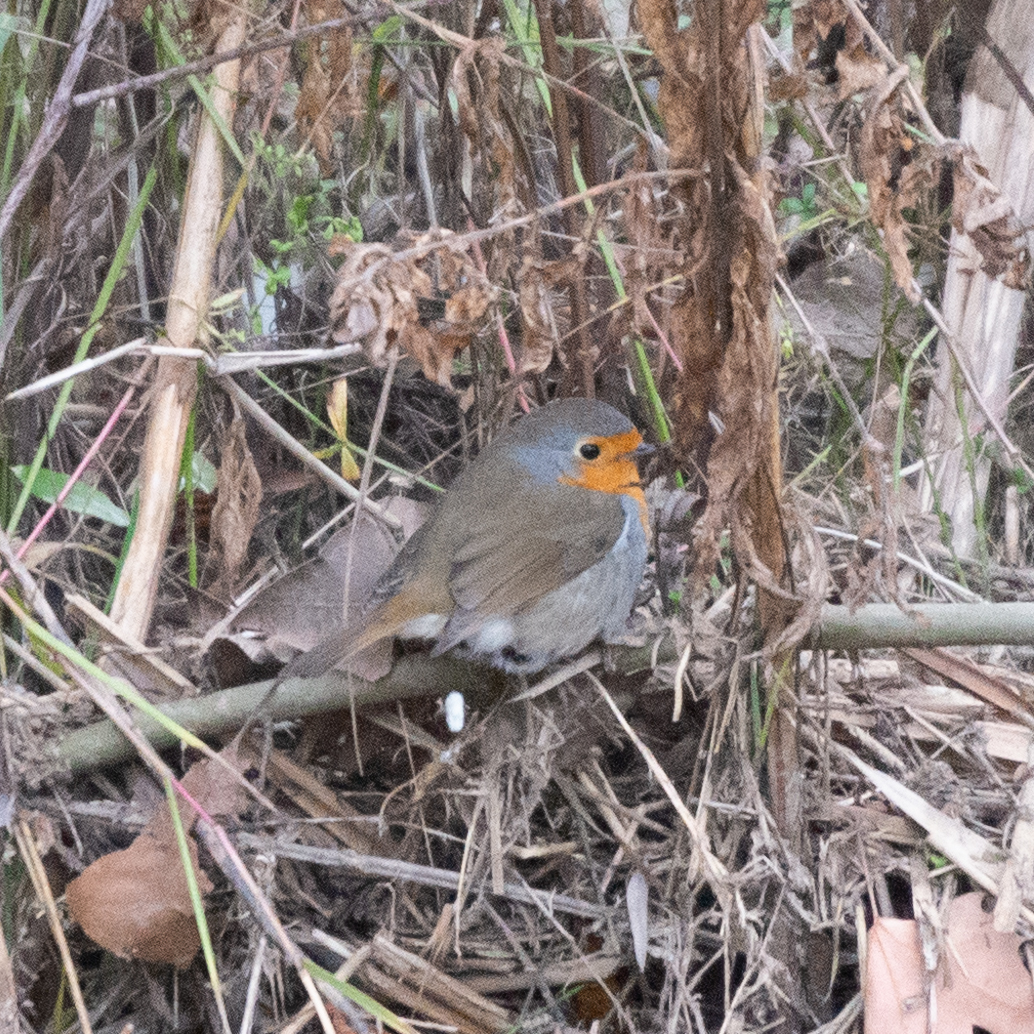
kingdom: Animalia
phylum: Chordata
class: Aves
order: Passeriformes
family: Muscicapidae
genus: Erithacus
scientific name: Erithacus rubecula
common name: European robin
